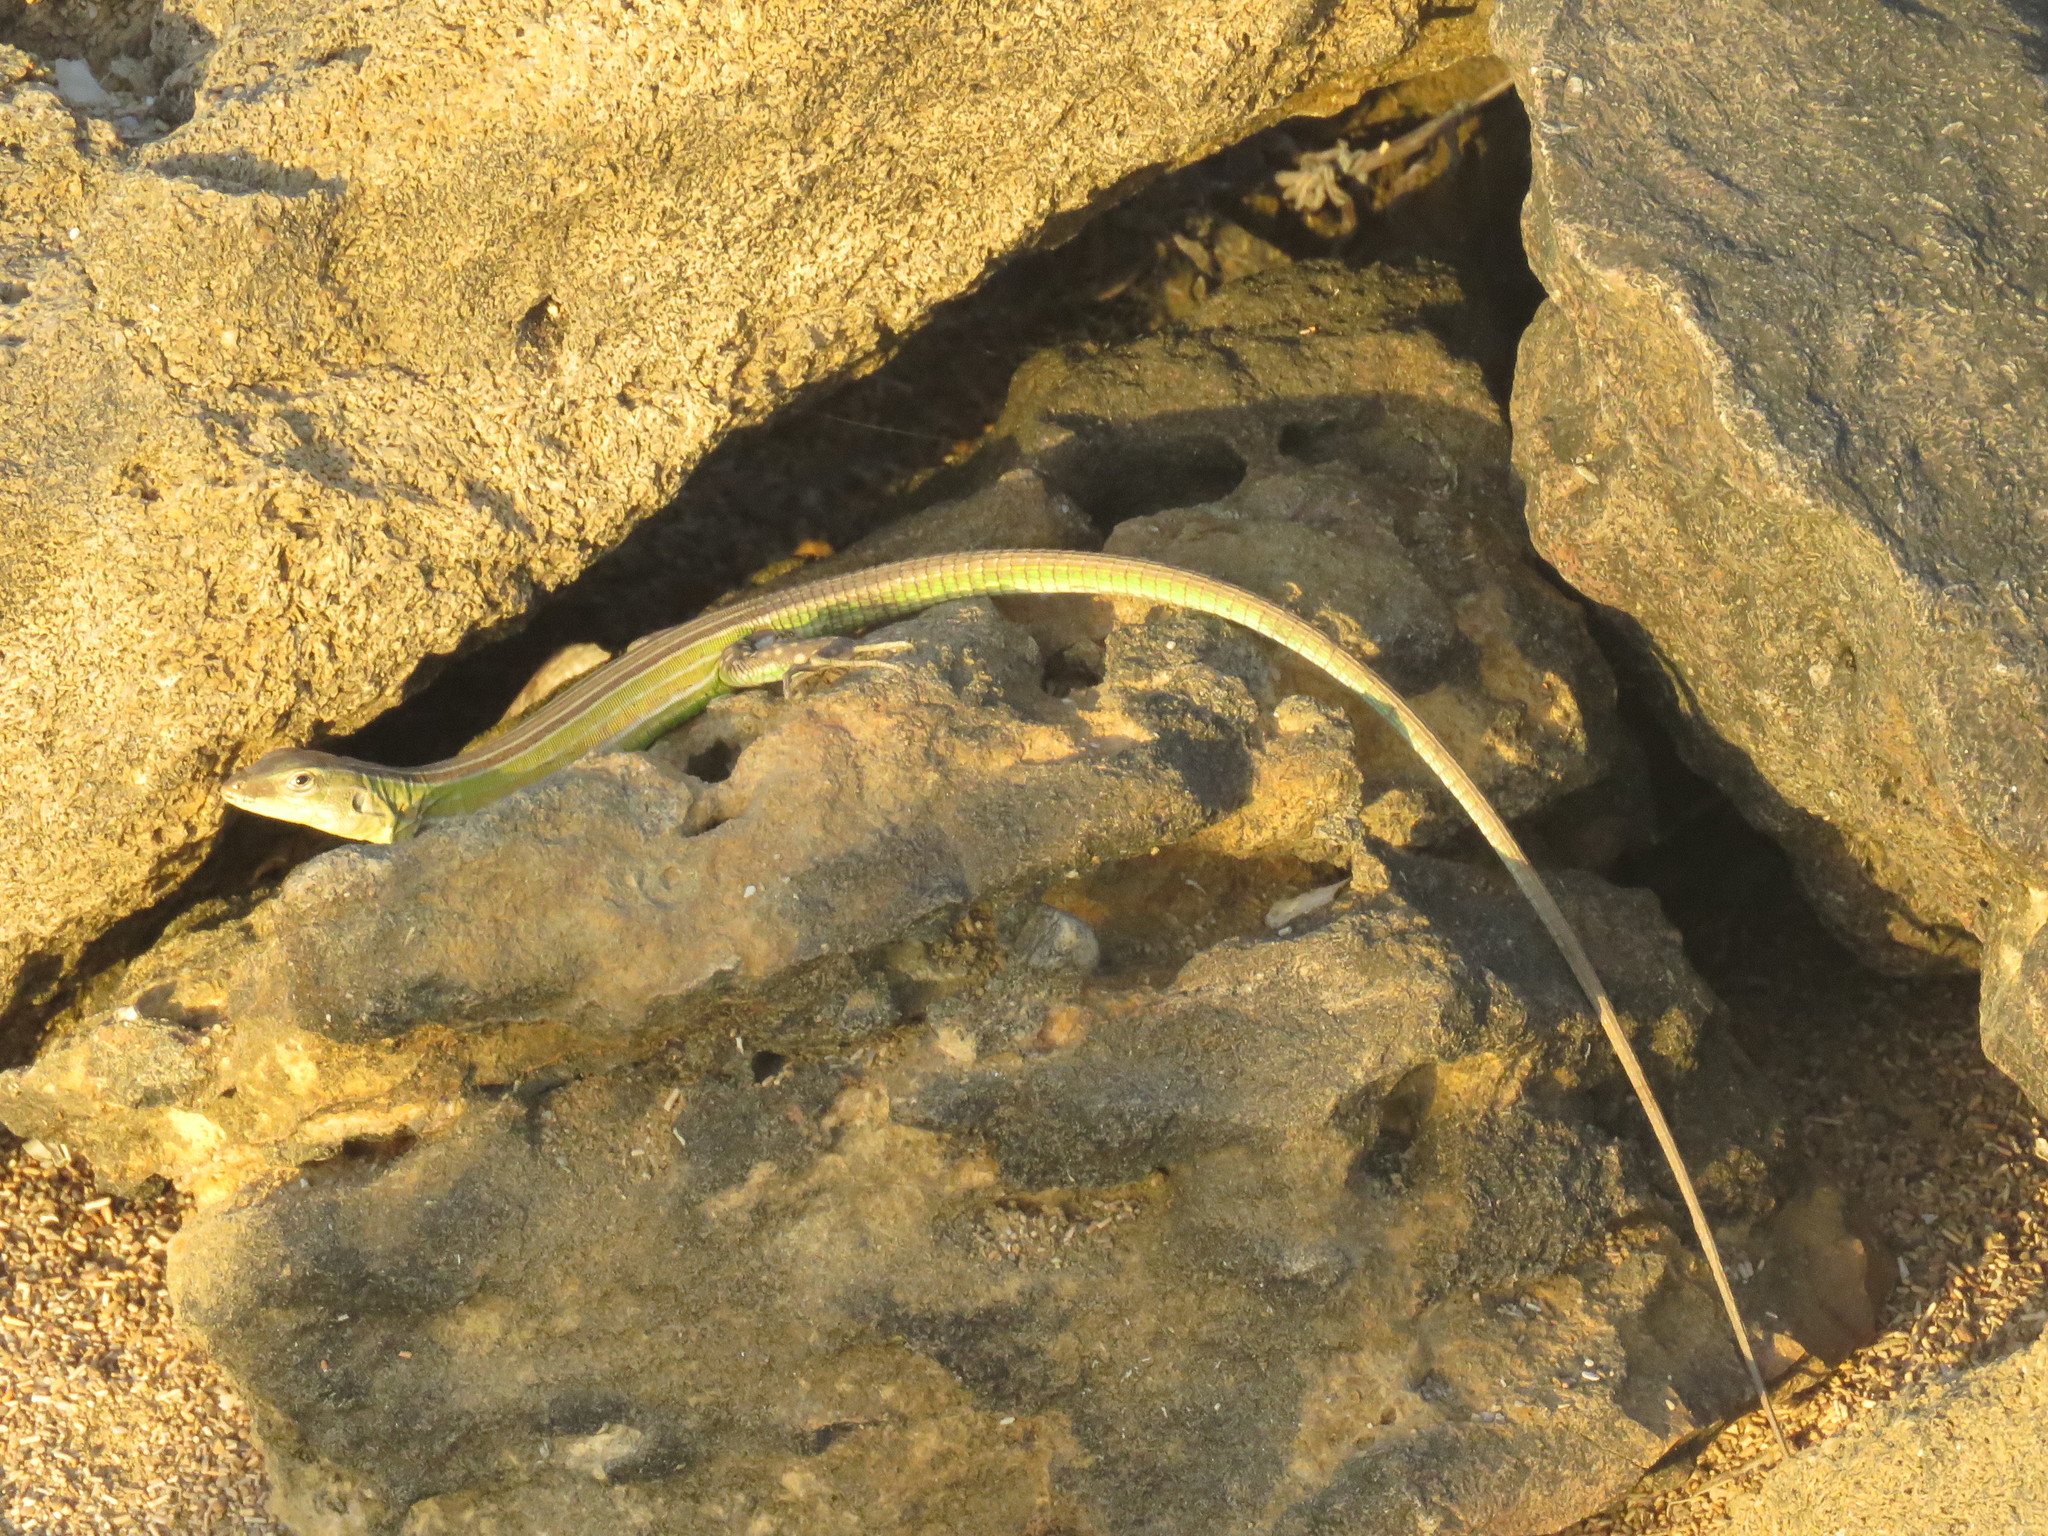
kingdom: Animalia
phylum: Chordata
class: Squamata
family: Teiidae
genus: Cnemidophorus
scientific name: Cnemidophorus arenivagus
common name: Rainbow lizard
